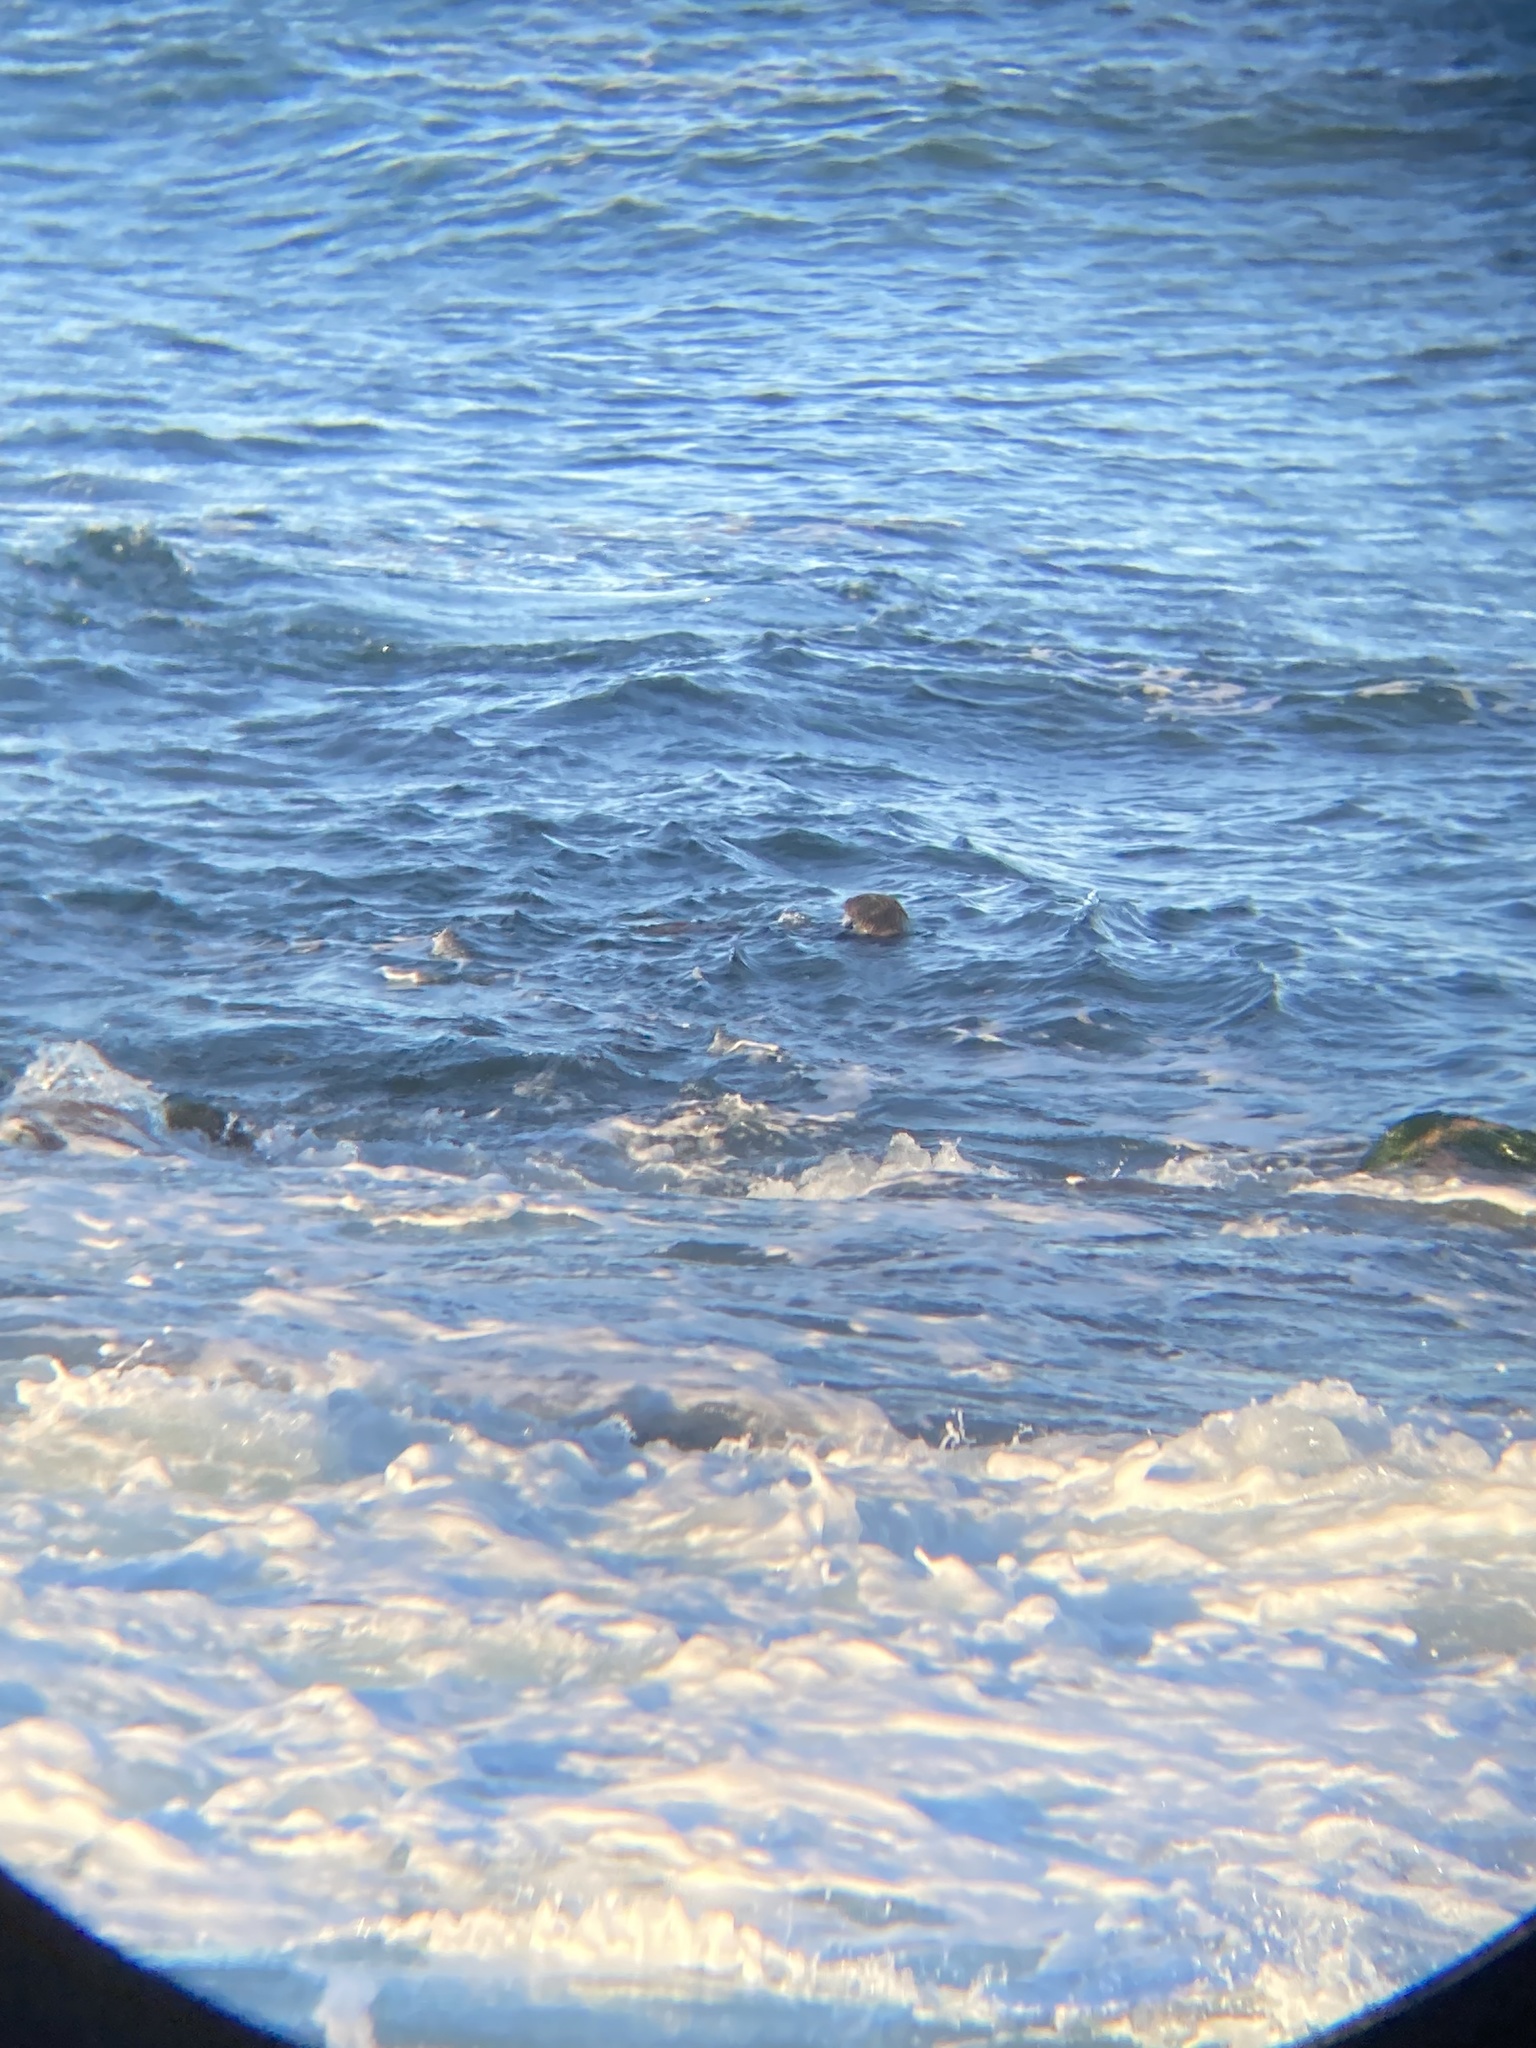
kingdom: Animalia
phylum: Chordata
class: Mammalia
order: Carnivora
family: Mustelidae
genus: Enhydra
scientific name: Enhydra lutris
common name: Sea otter
